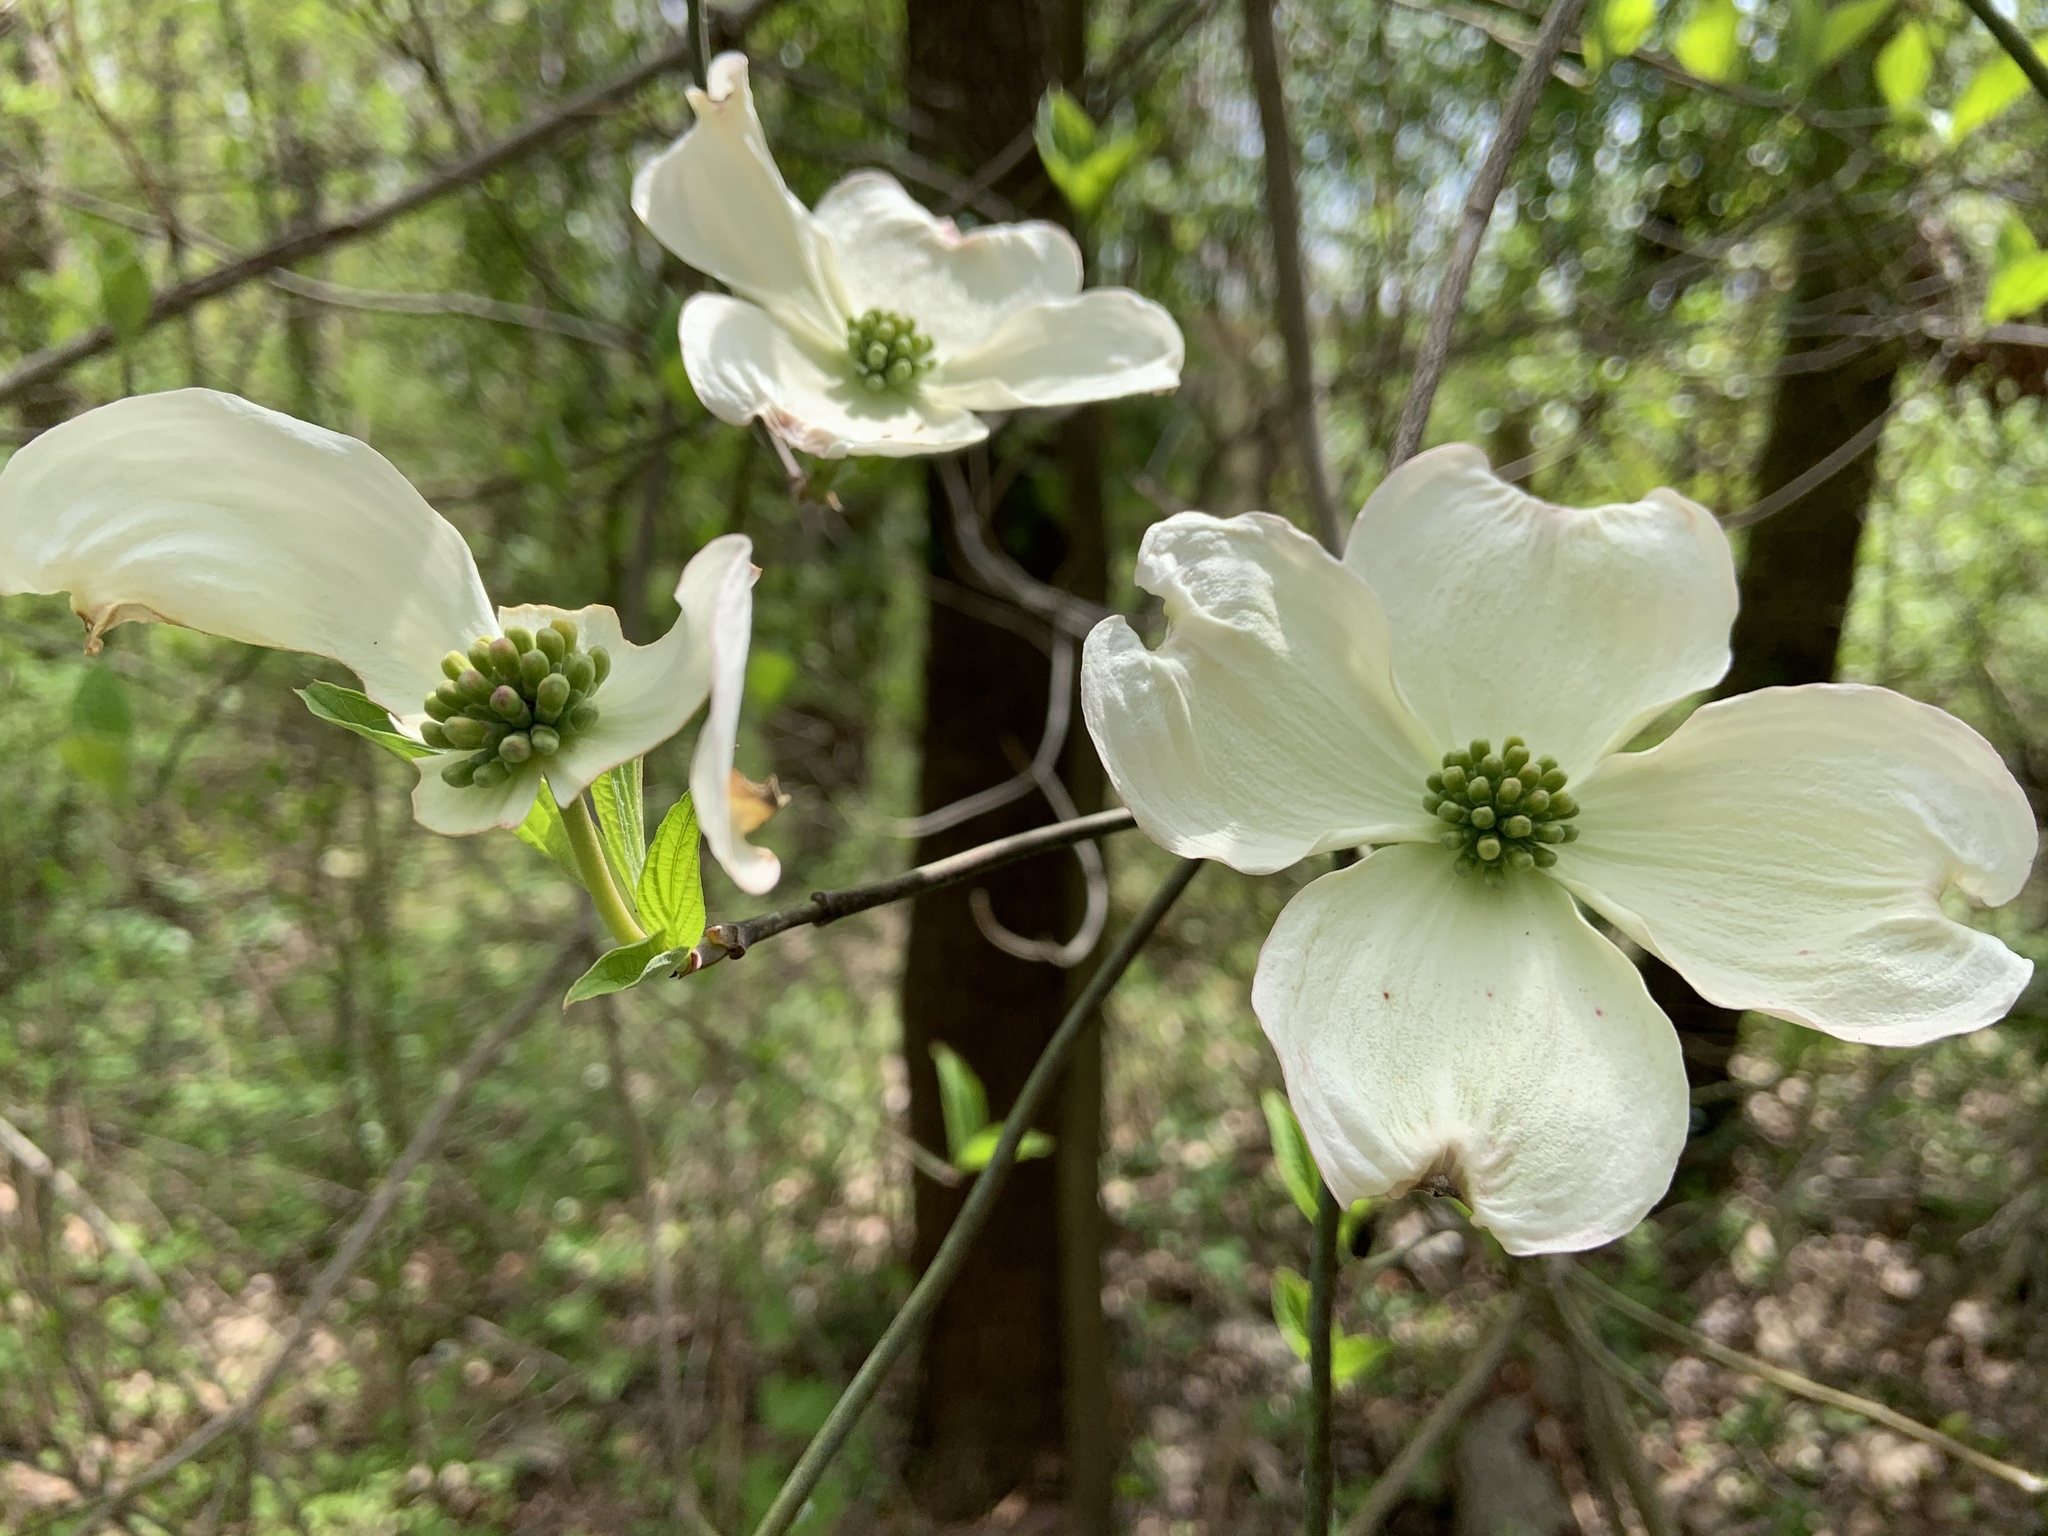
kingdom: Plantae
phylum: Tracheophyta
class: Magnoliopsida
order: Cornales
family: Cornaceae
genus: Cornus
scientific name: Cornus florida
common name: Flowering dogwood
